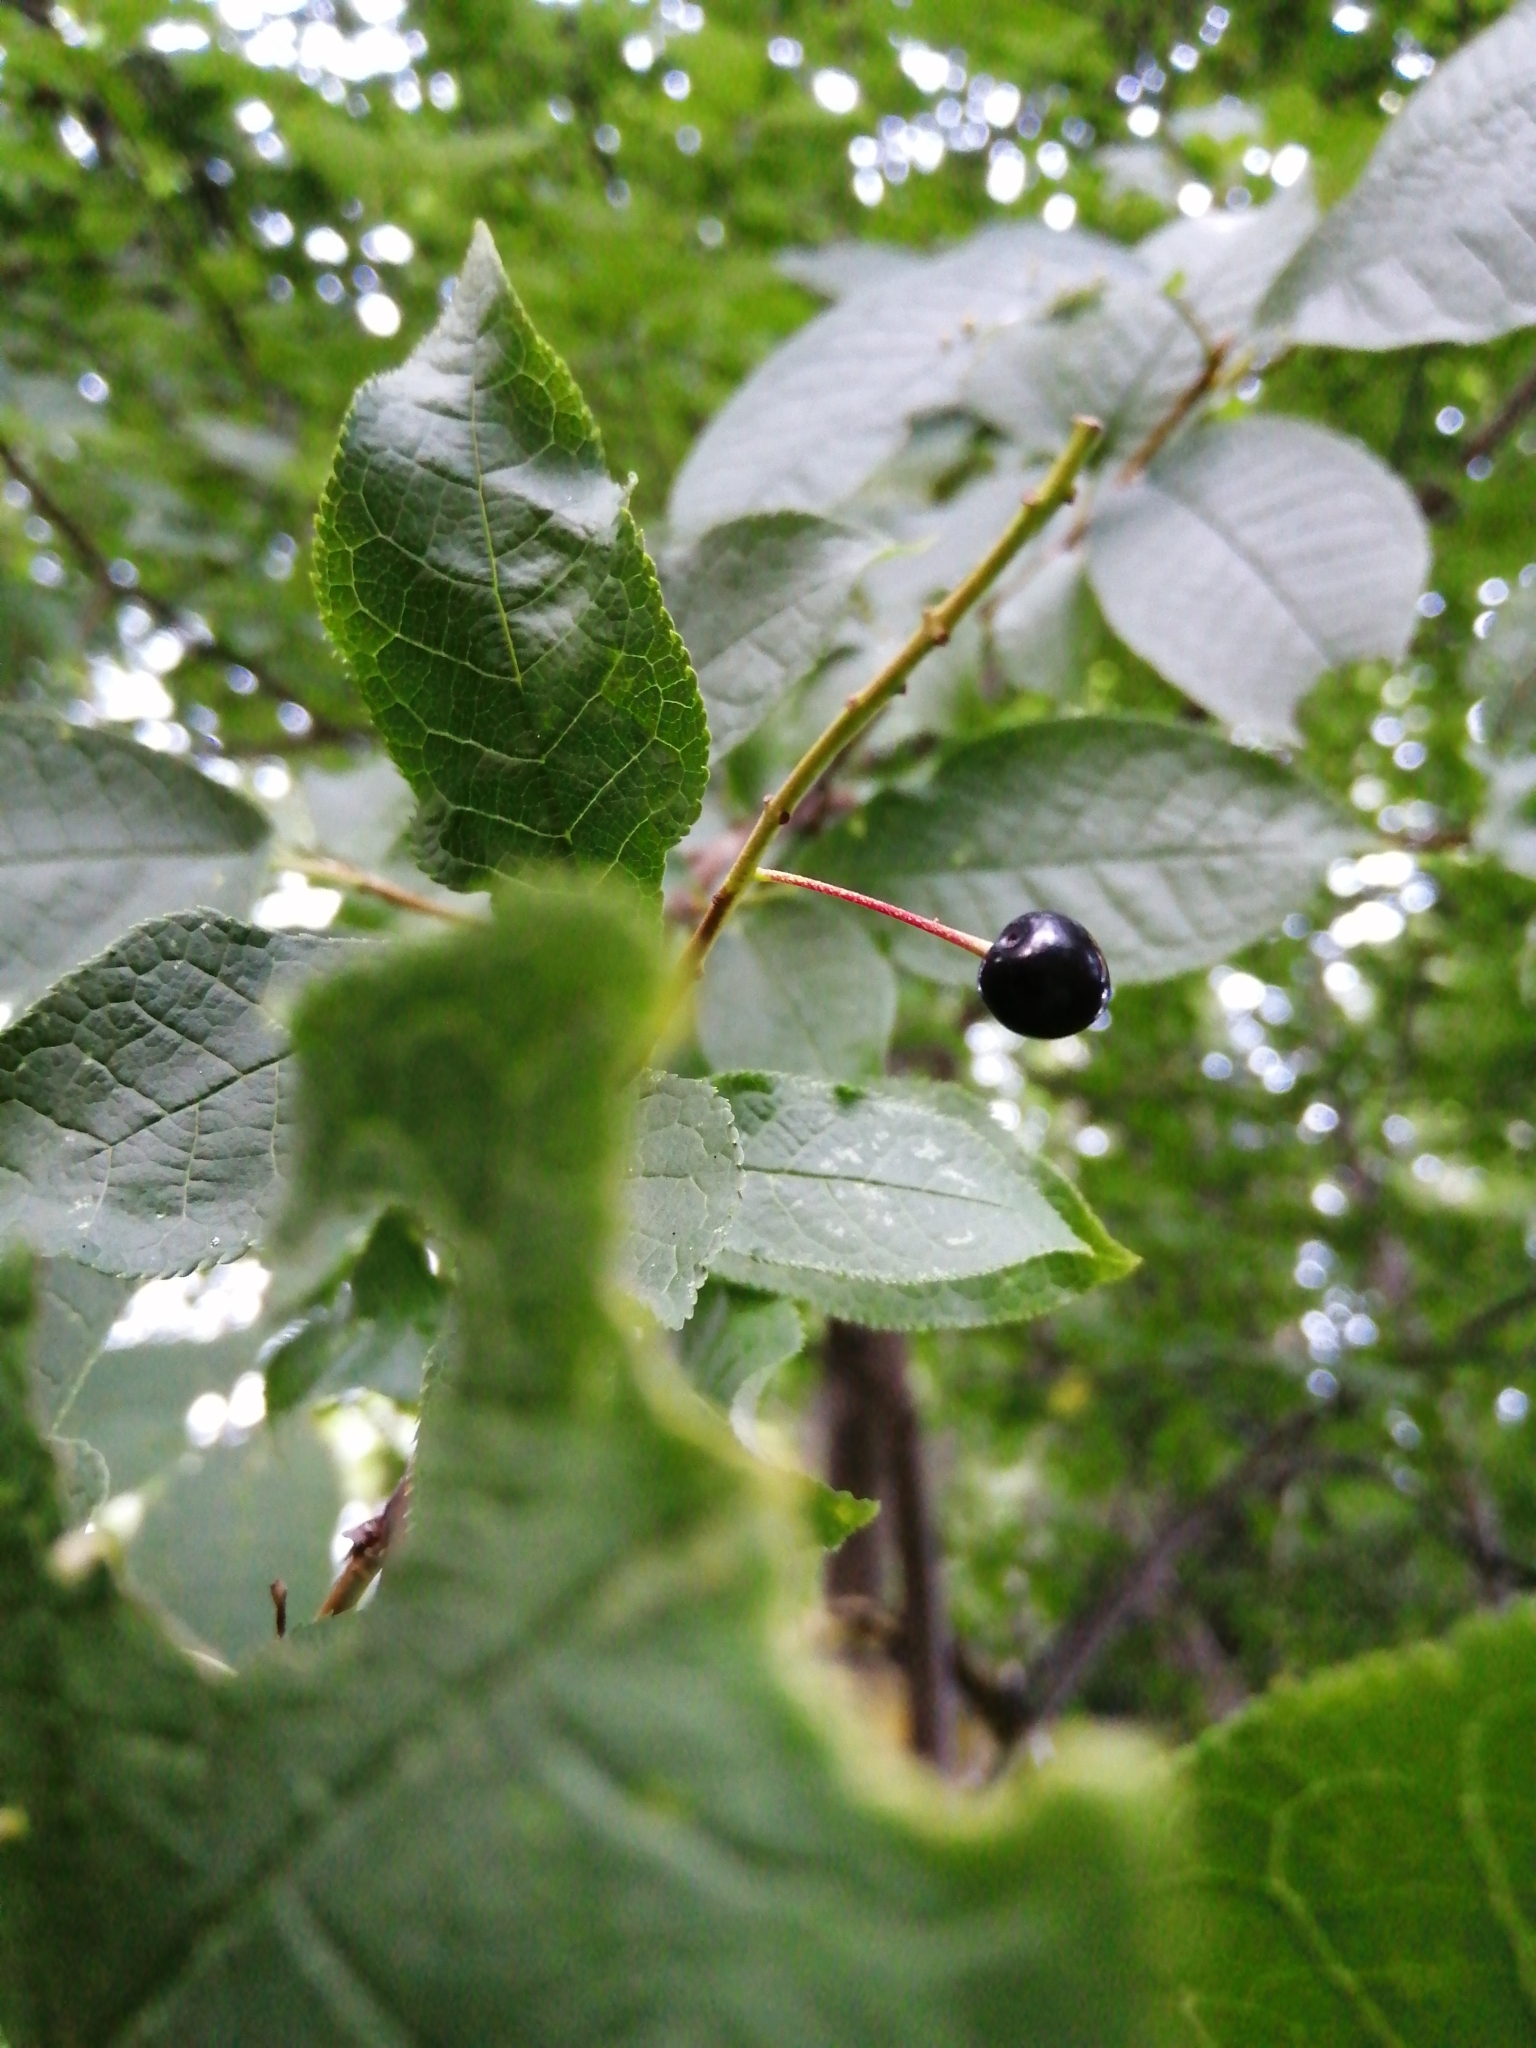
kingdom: Plantae
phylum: Tracheophyta
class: Magnoliopsida
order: Rosales
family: Rosaceae
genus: Prunus
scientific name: Prunus padus
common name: Bird cherry
